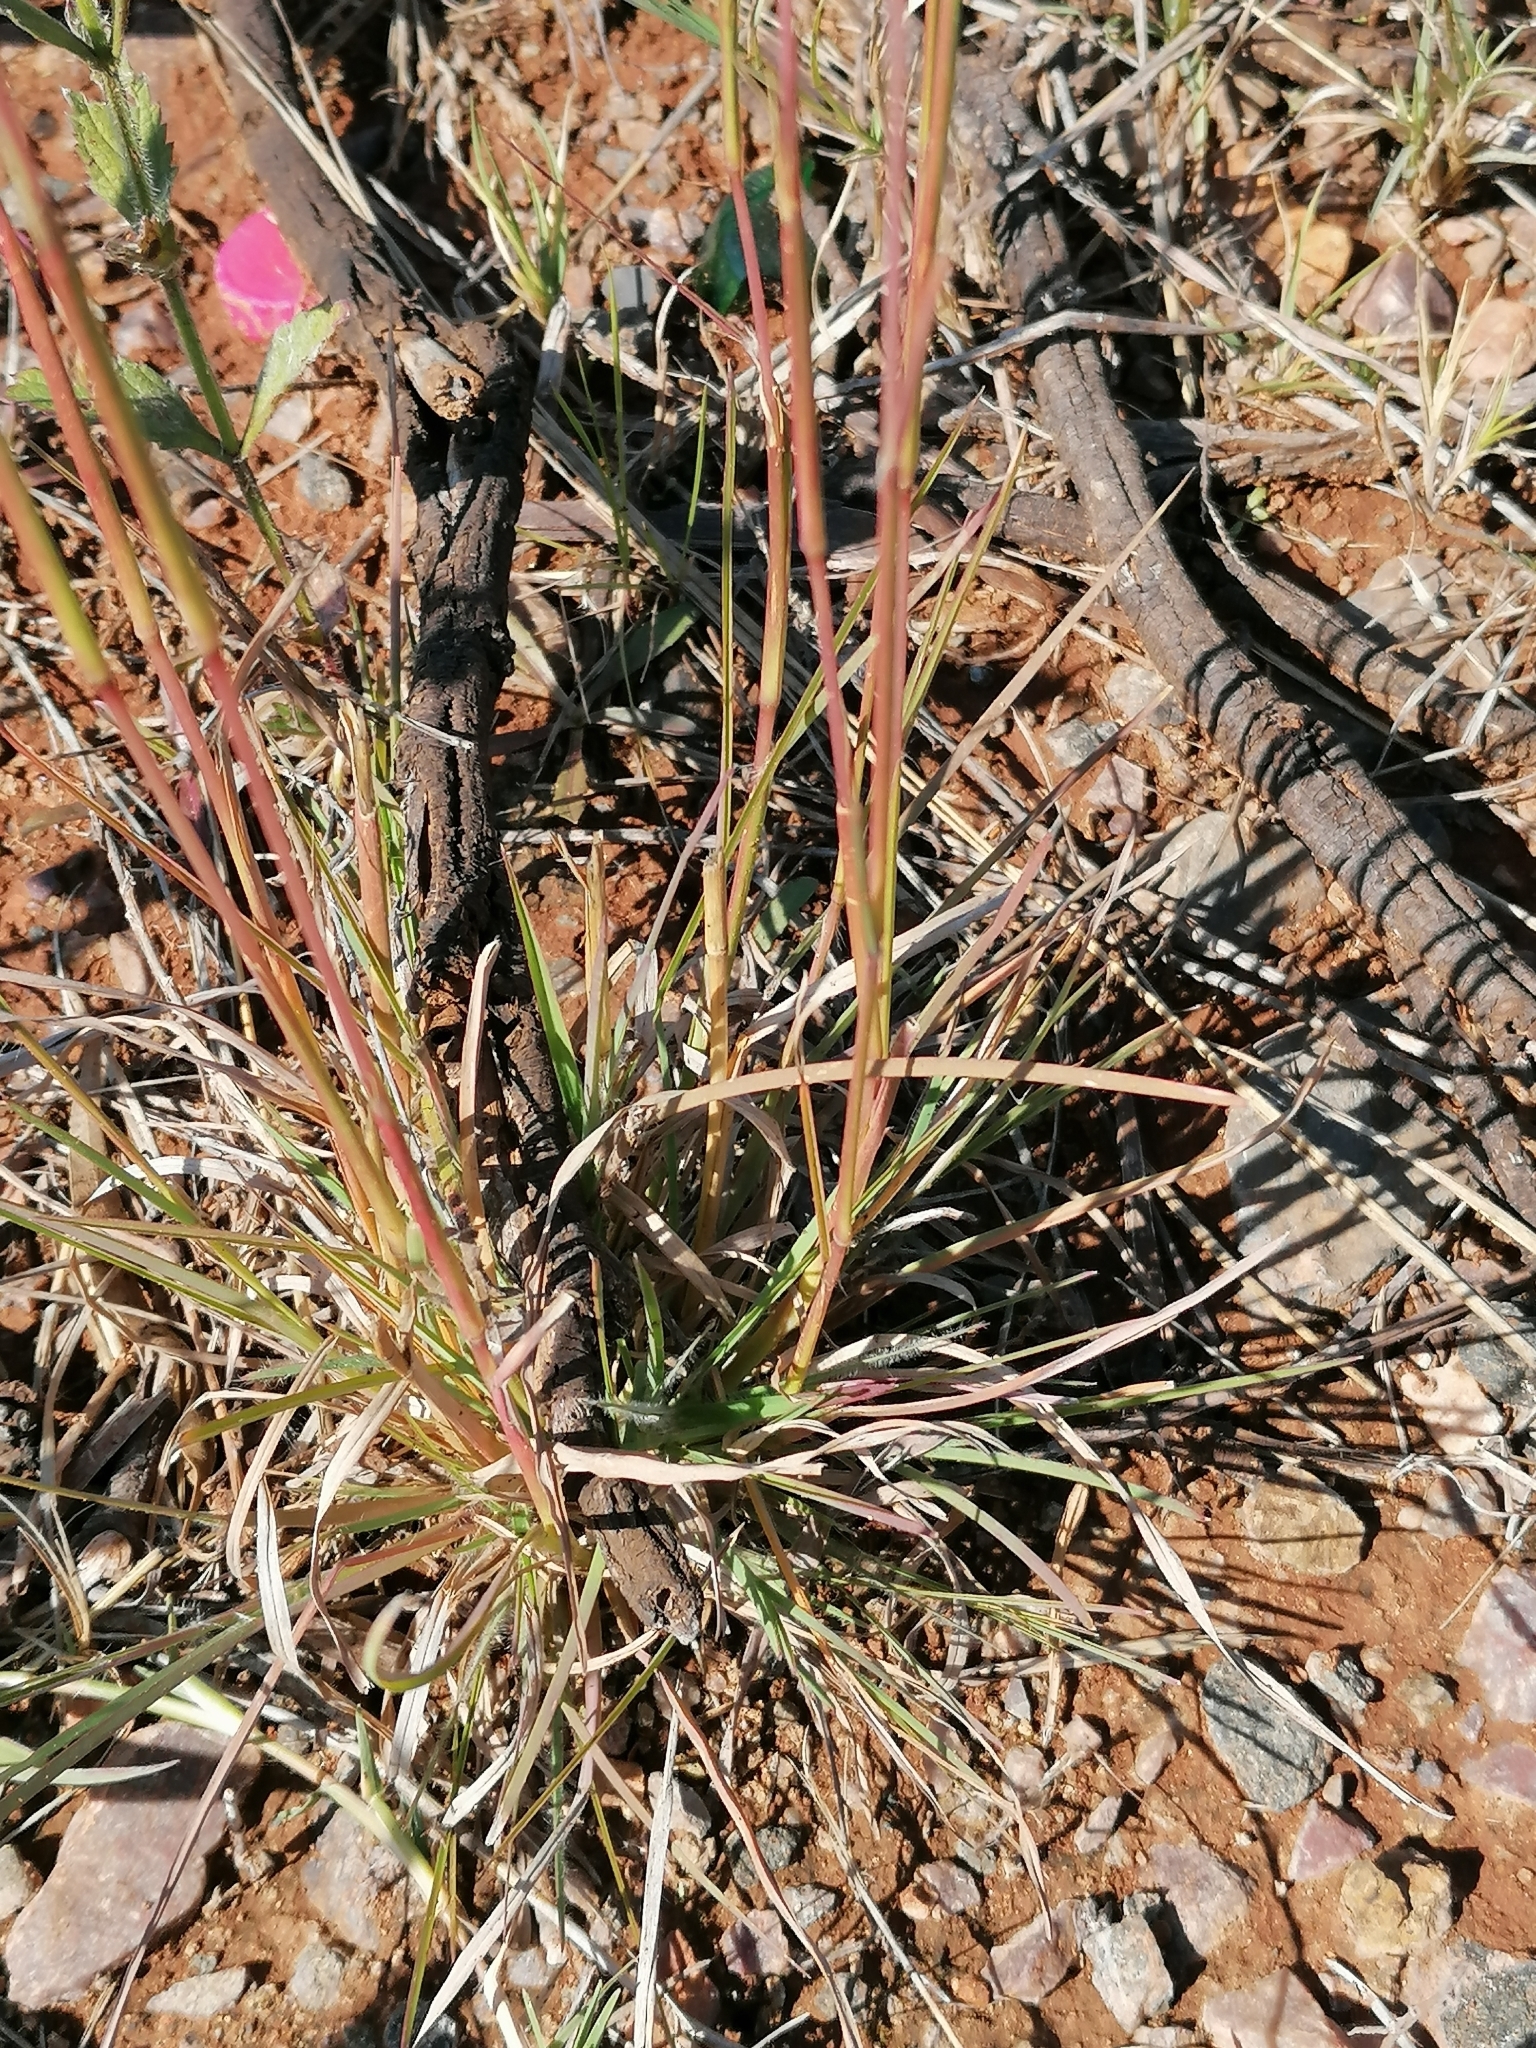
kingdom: Plantae
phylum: Tracheophyta
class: Liliopsida
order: Poales
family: Poaceae
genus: Andropogon
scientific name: Andropogon eucomus
